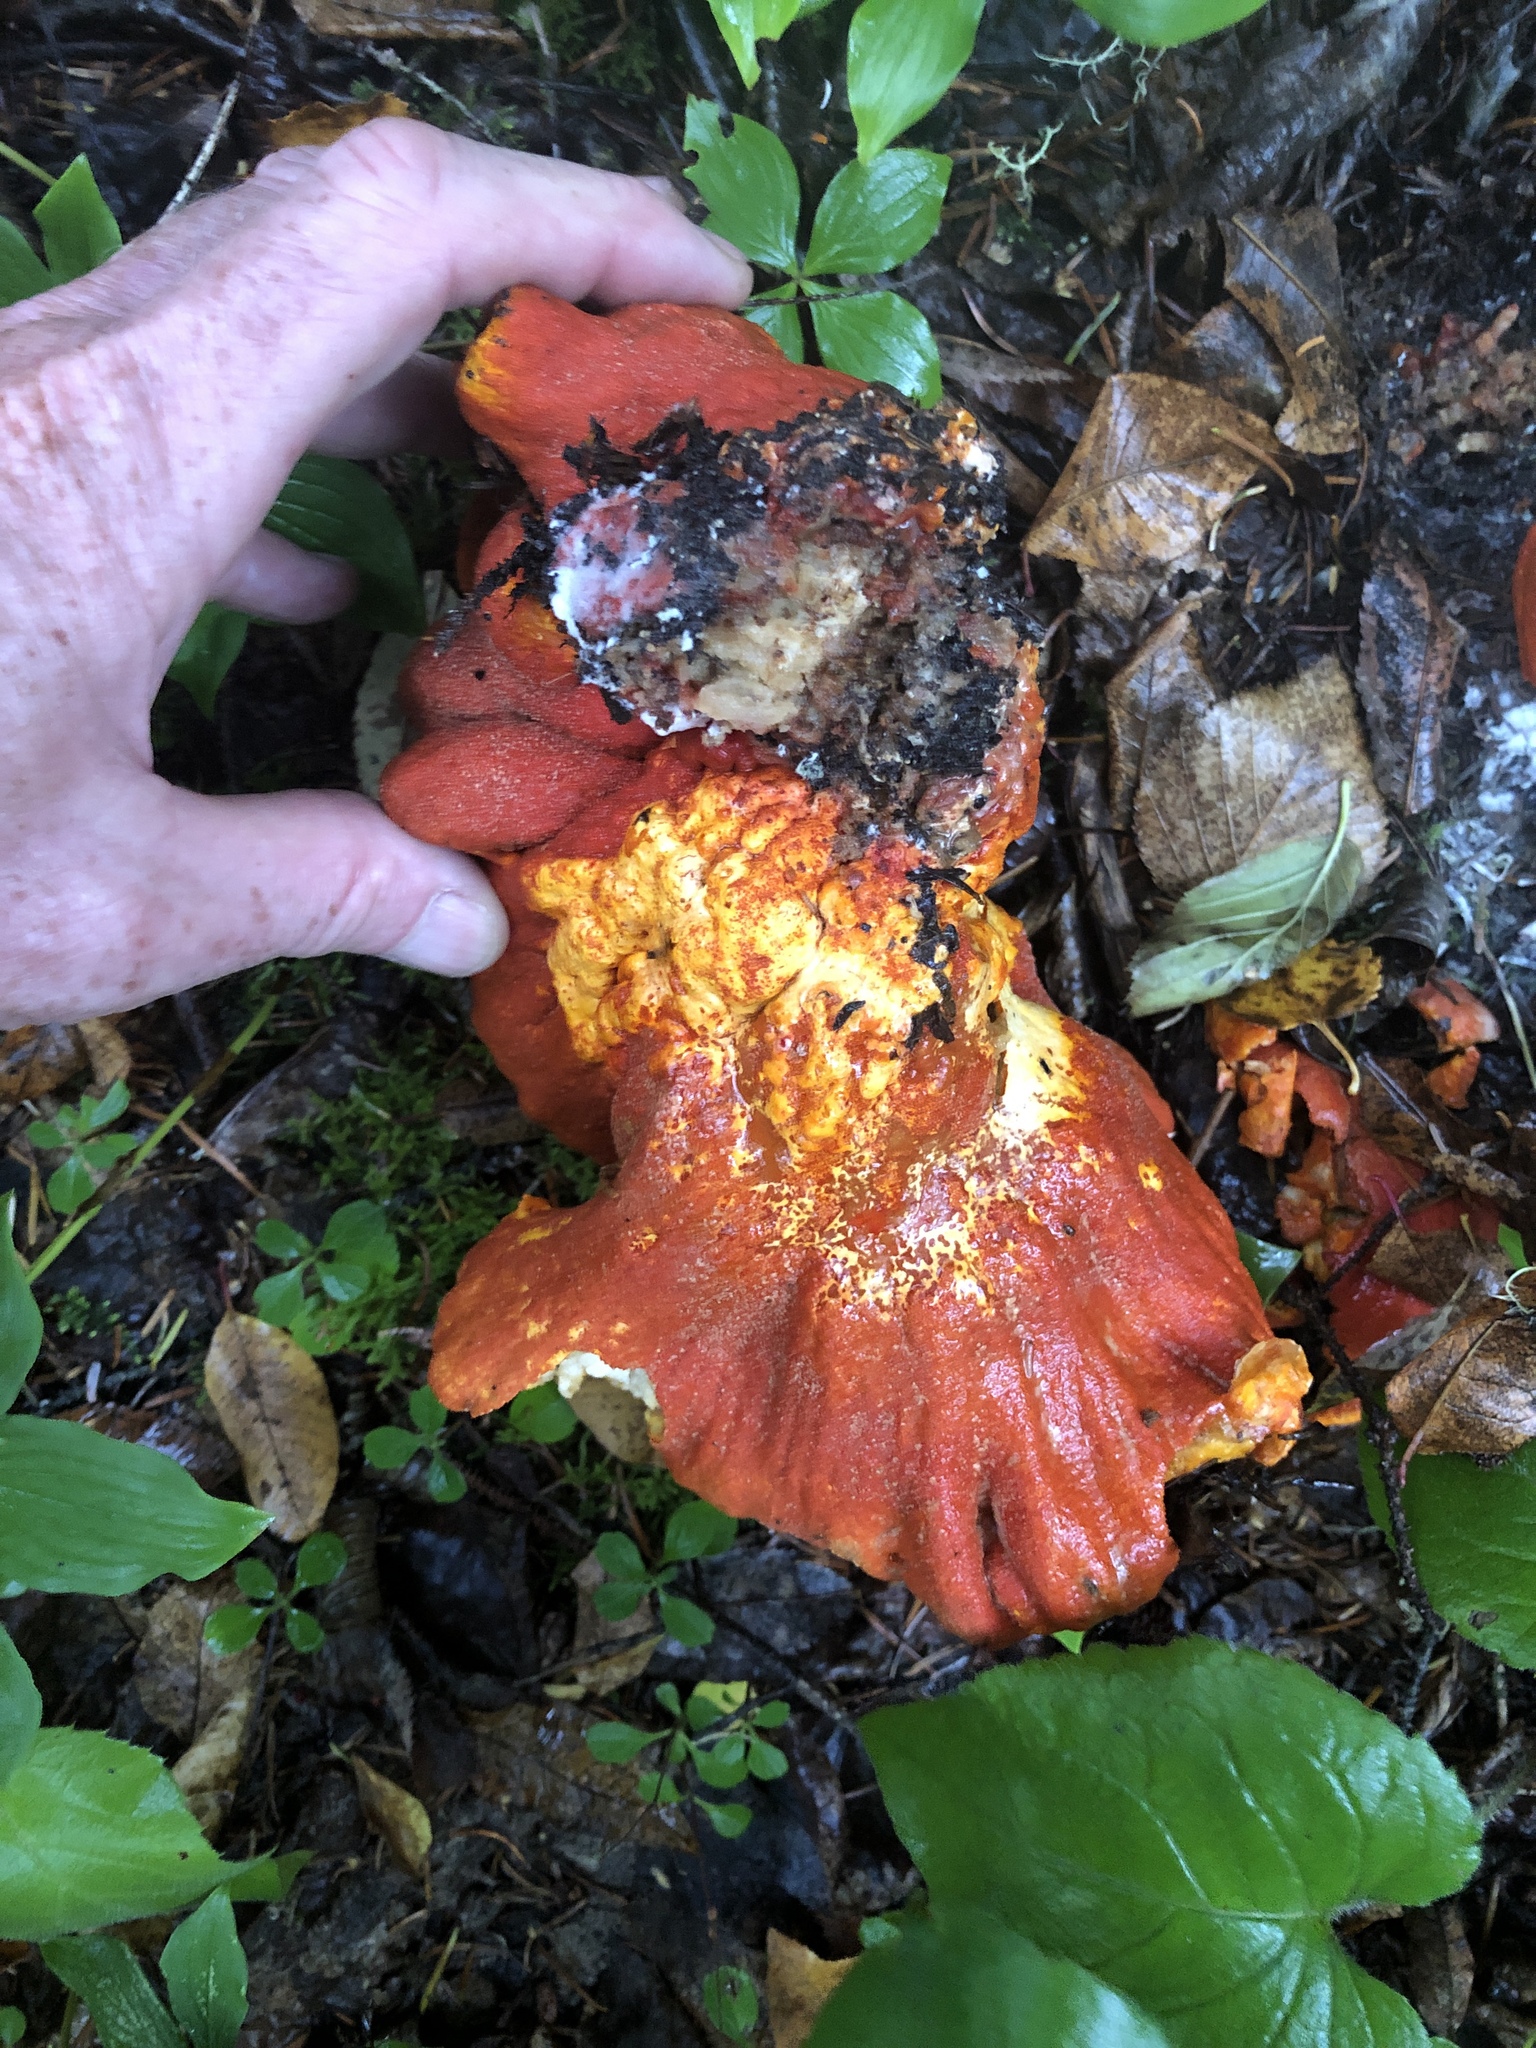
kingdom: Fungi
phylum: Ascomycota
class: Sordariomycetes
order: Hypocreales
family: Hypocreaceae
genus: Hypomyces
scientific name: Hypomyces lactifluorum
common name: Lobster mushroom
